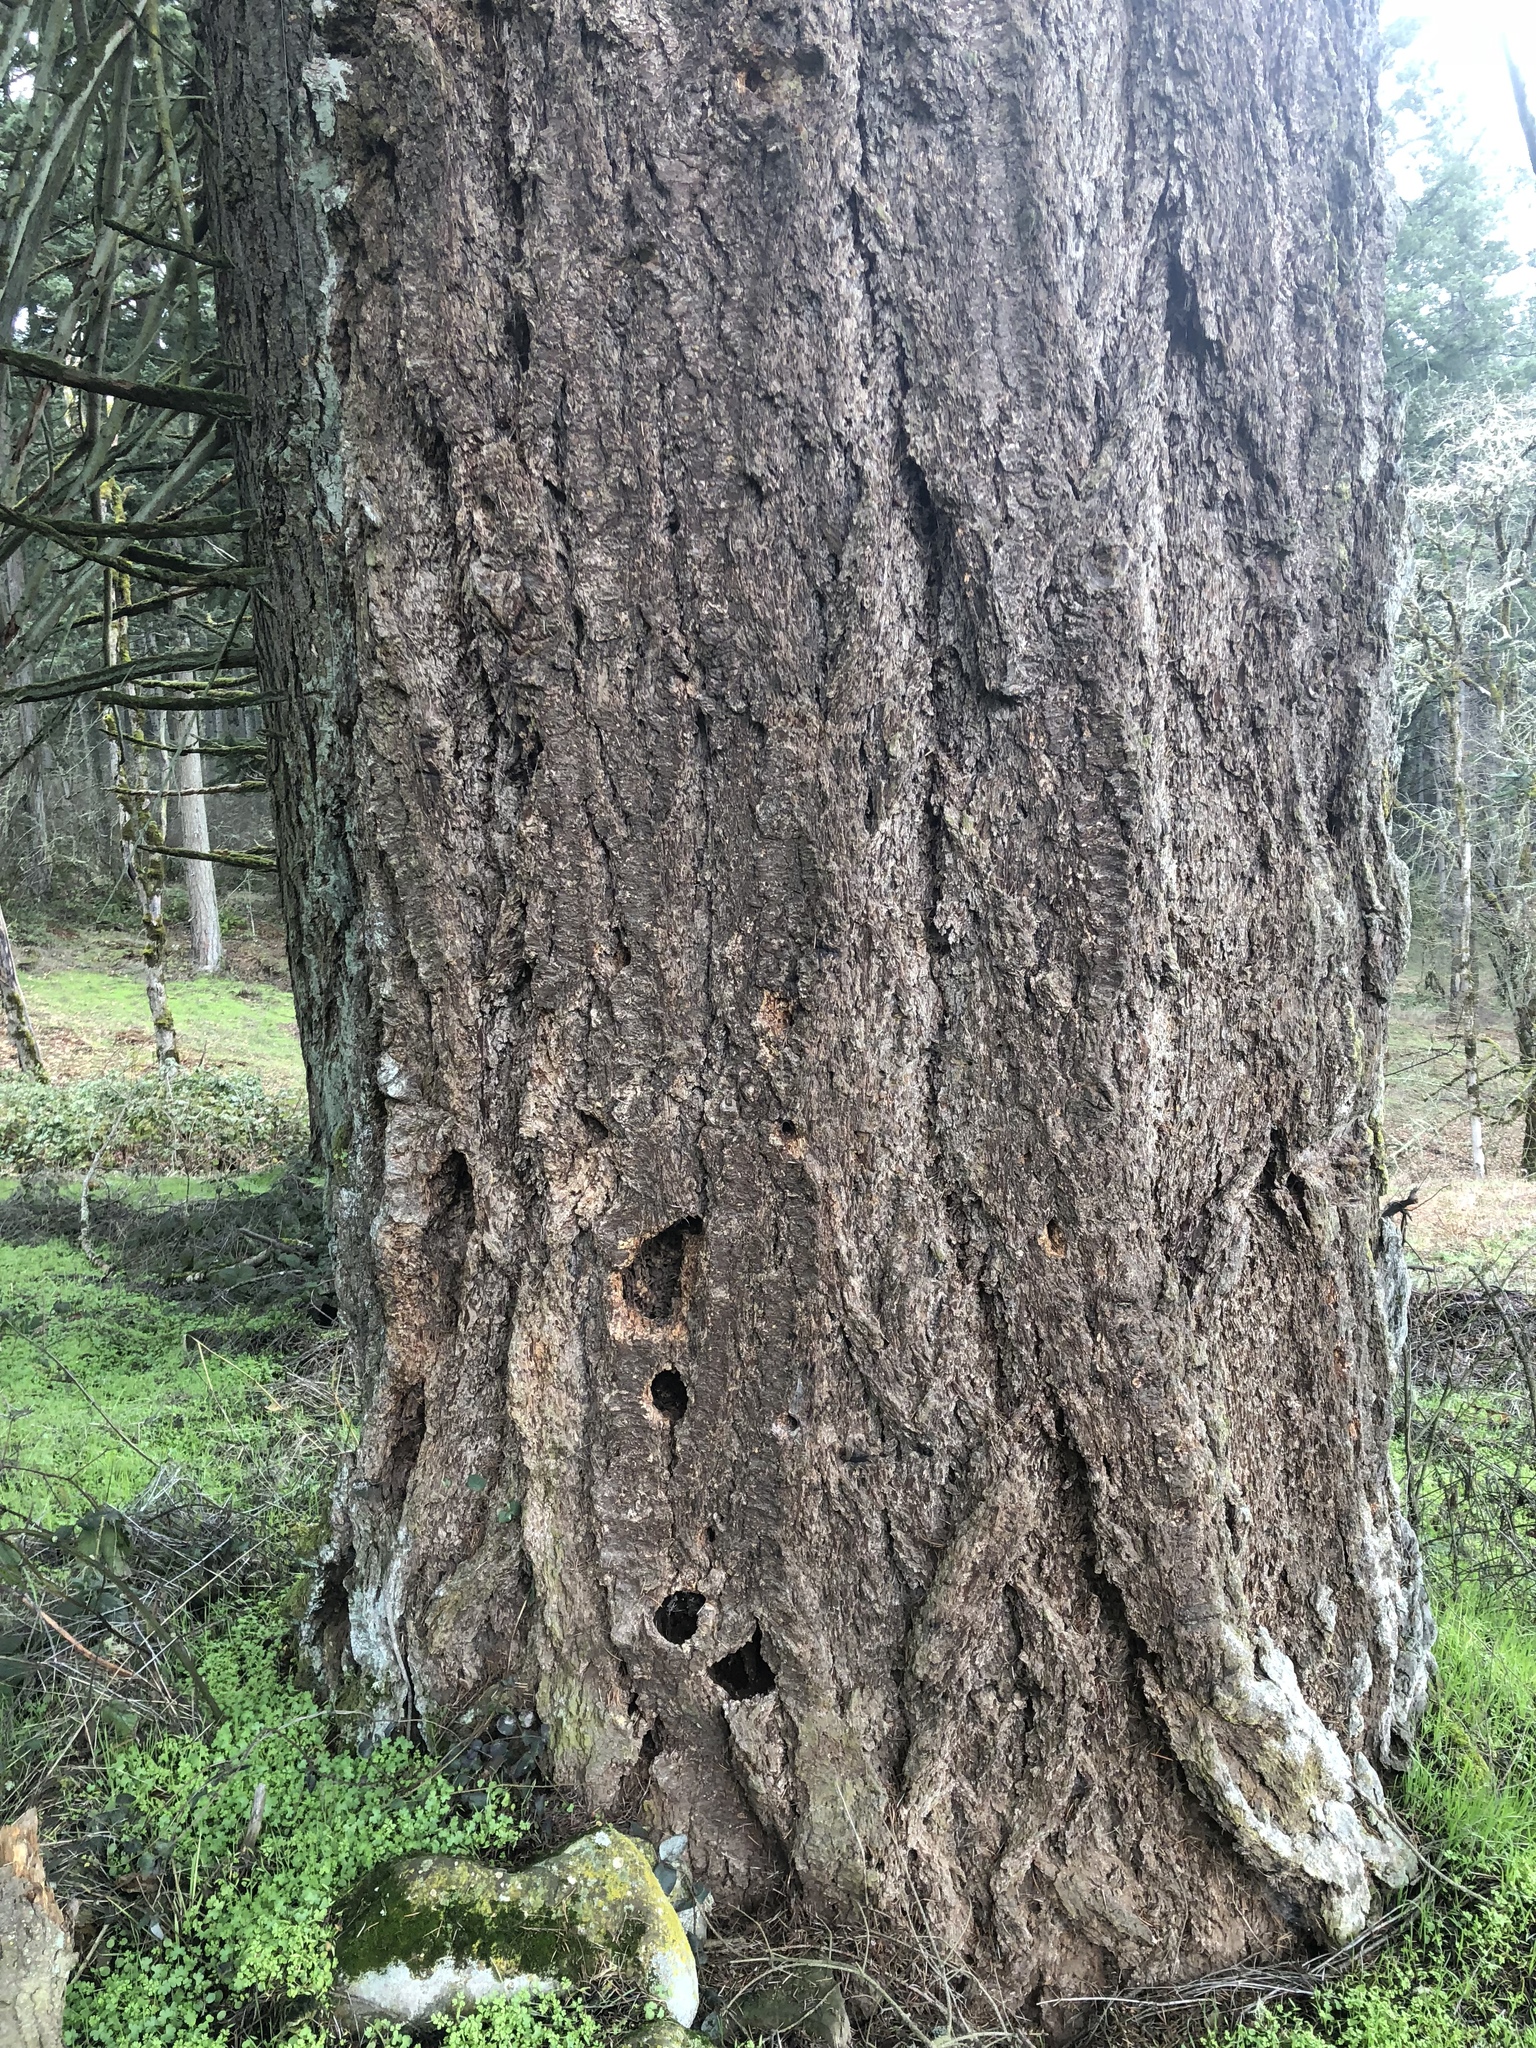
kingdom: Plantae
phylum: Tracheophyta
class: Pinopsida
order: Pinales
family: Pinaceae
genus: Pseudotsuga
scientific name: Pseudotsuga menziesii
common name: Douglas fir
